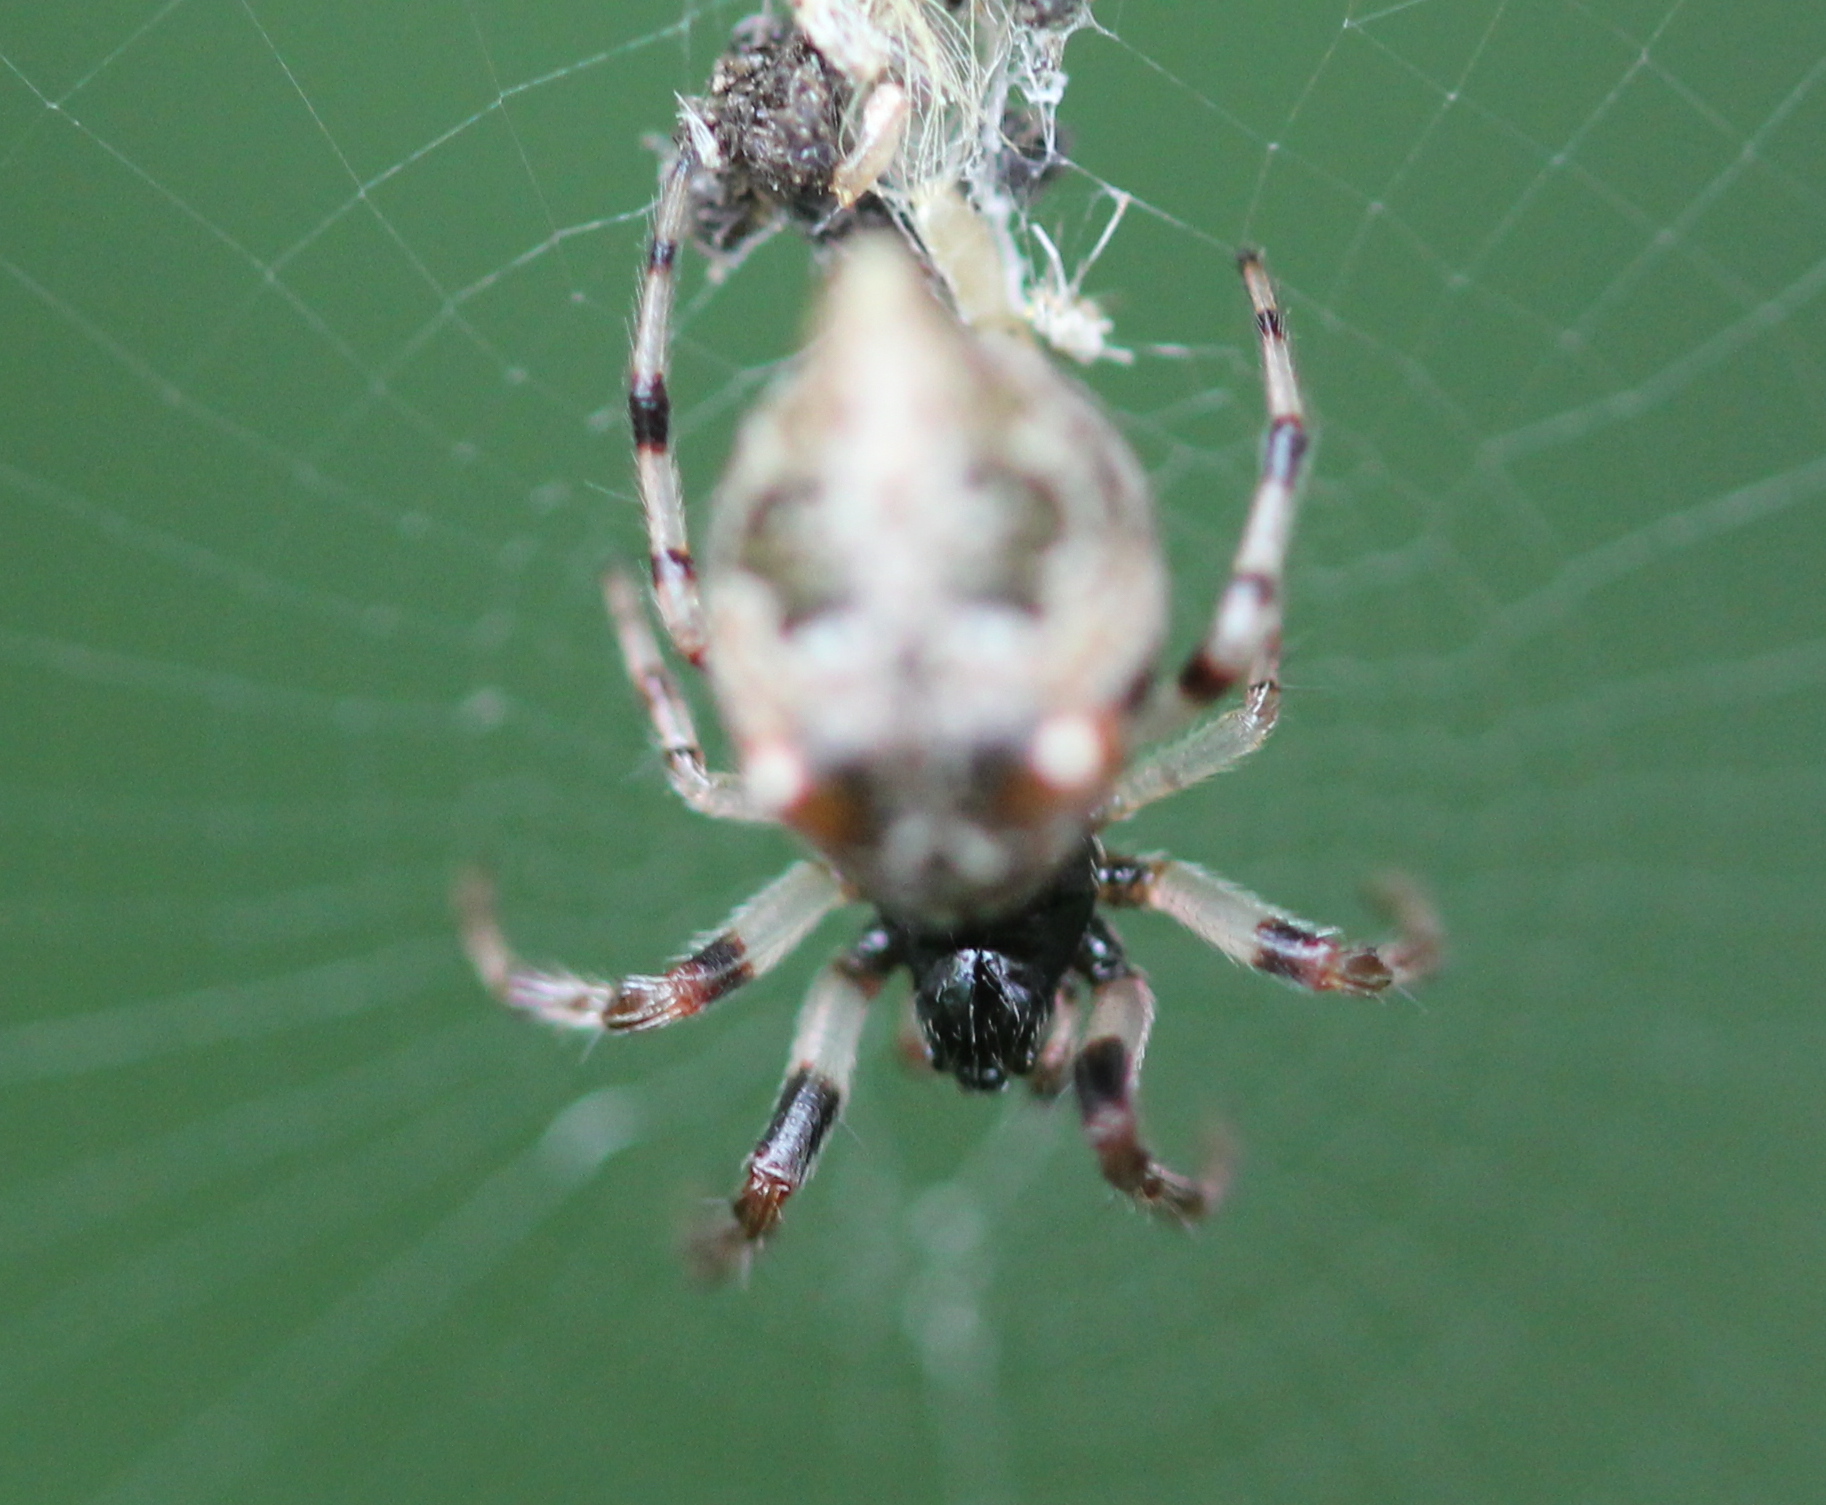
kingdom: Animalia
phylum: Arthropoda
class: Arachnida
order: Araneae
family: Araneidae
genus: Cyclosa
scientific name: Cyclosa turbinata
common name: Orb weavers
